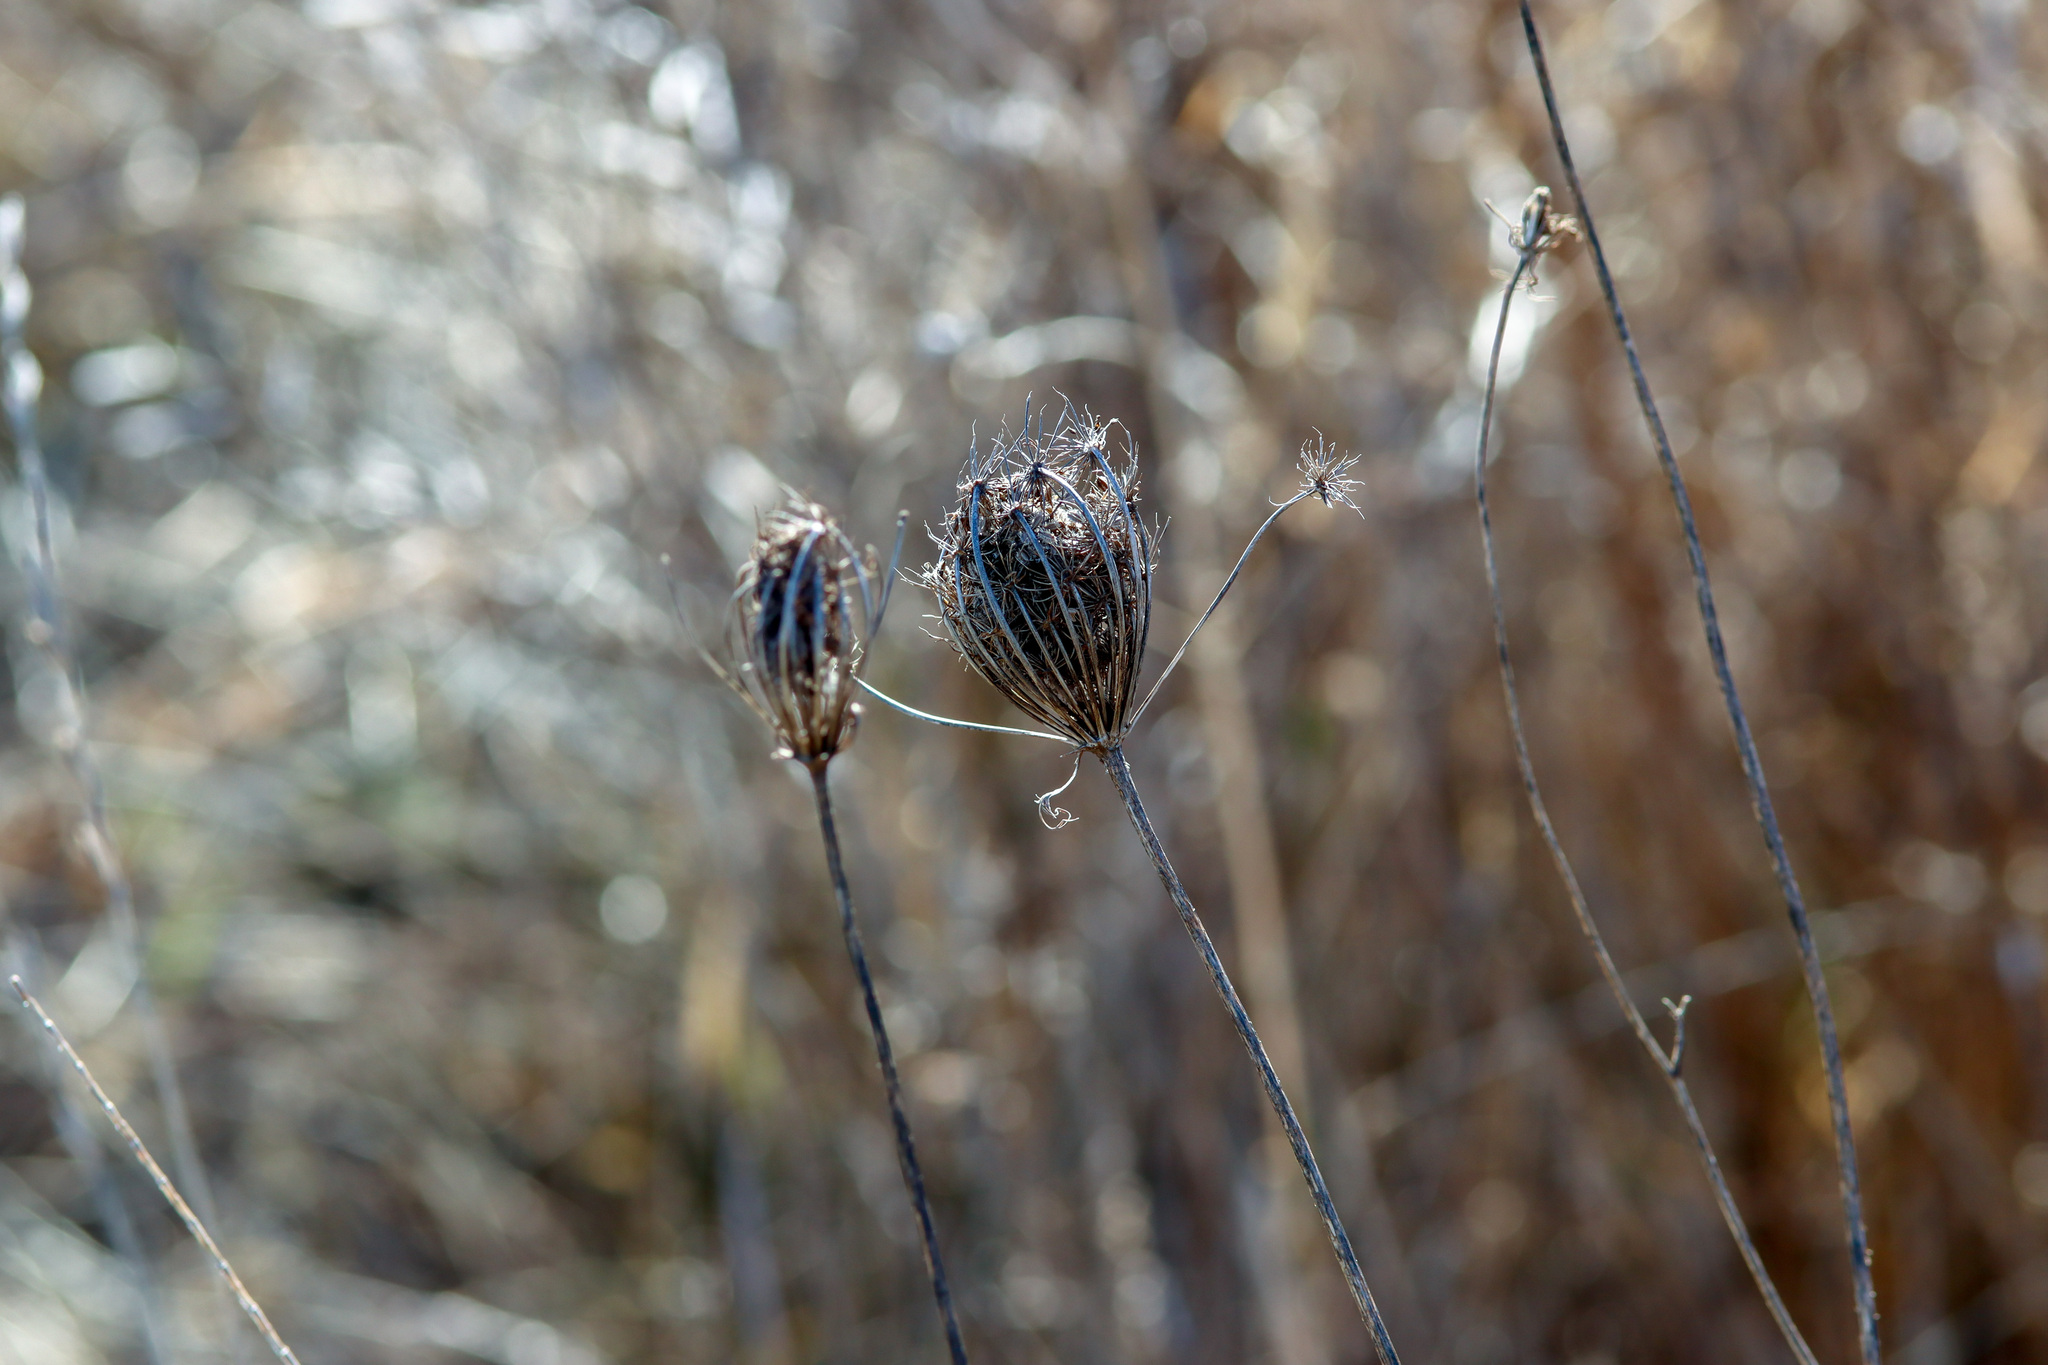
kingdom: Plantae
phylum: Tracheophyta
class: Magnoliopsida
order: Apiales
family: Apiaceae
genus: Daucus
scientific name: Daucus carota
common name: Wild carrot
